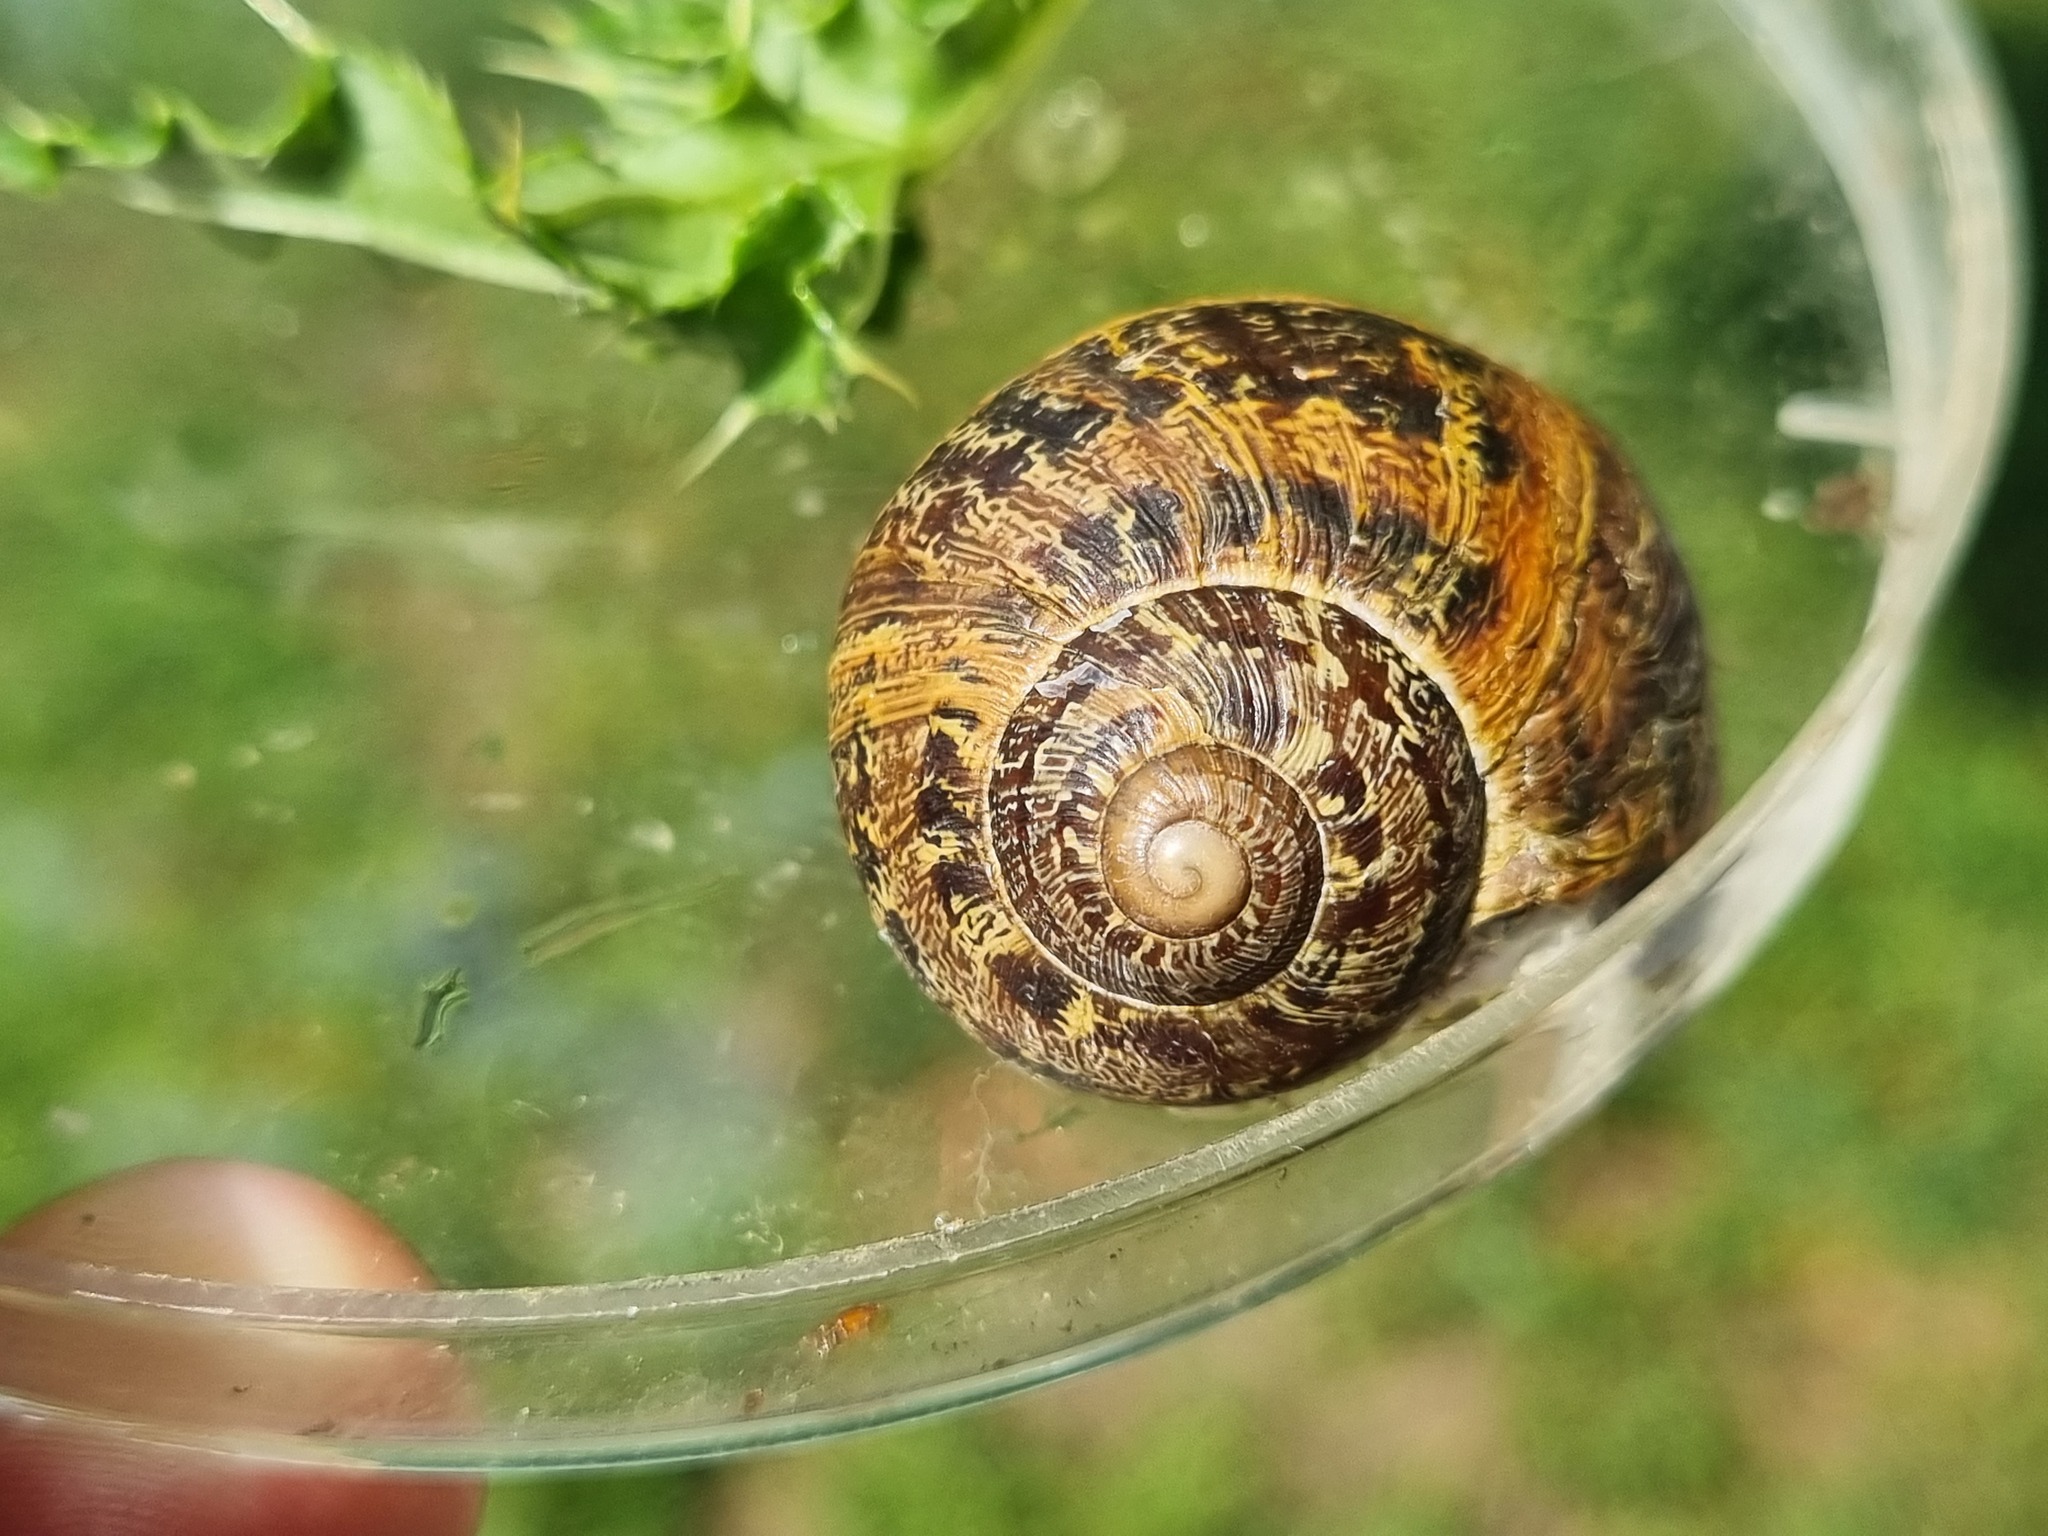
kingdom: Animalia
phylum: Mollusca
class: Gastropoda
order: Stylommatophora
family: Helicidae
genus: Cornu
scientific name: Cornu aspersum
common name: Brown garden snail
